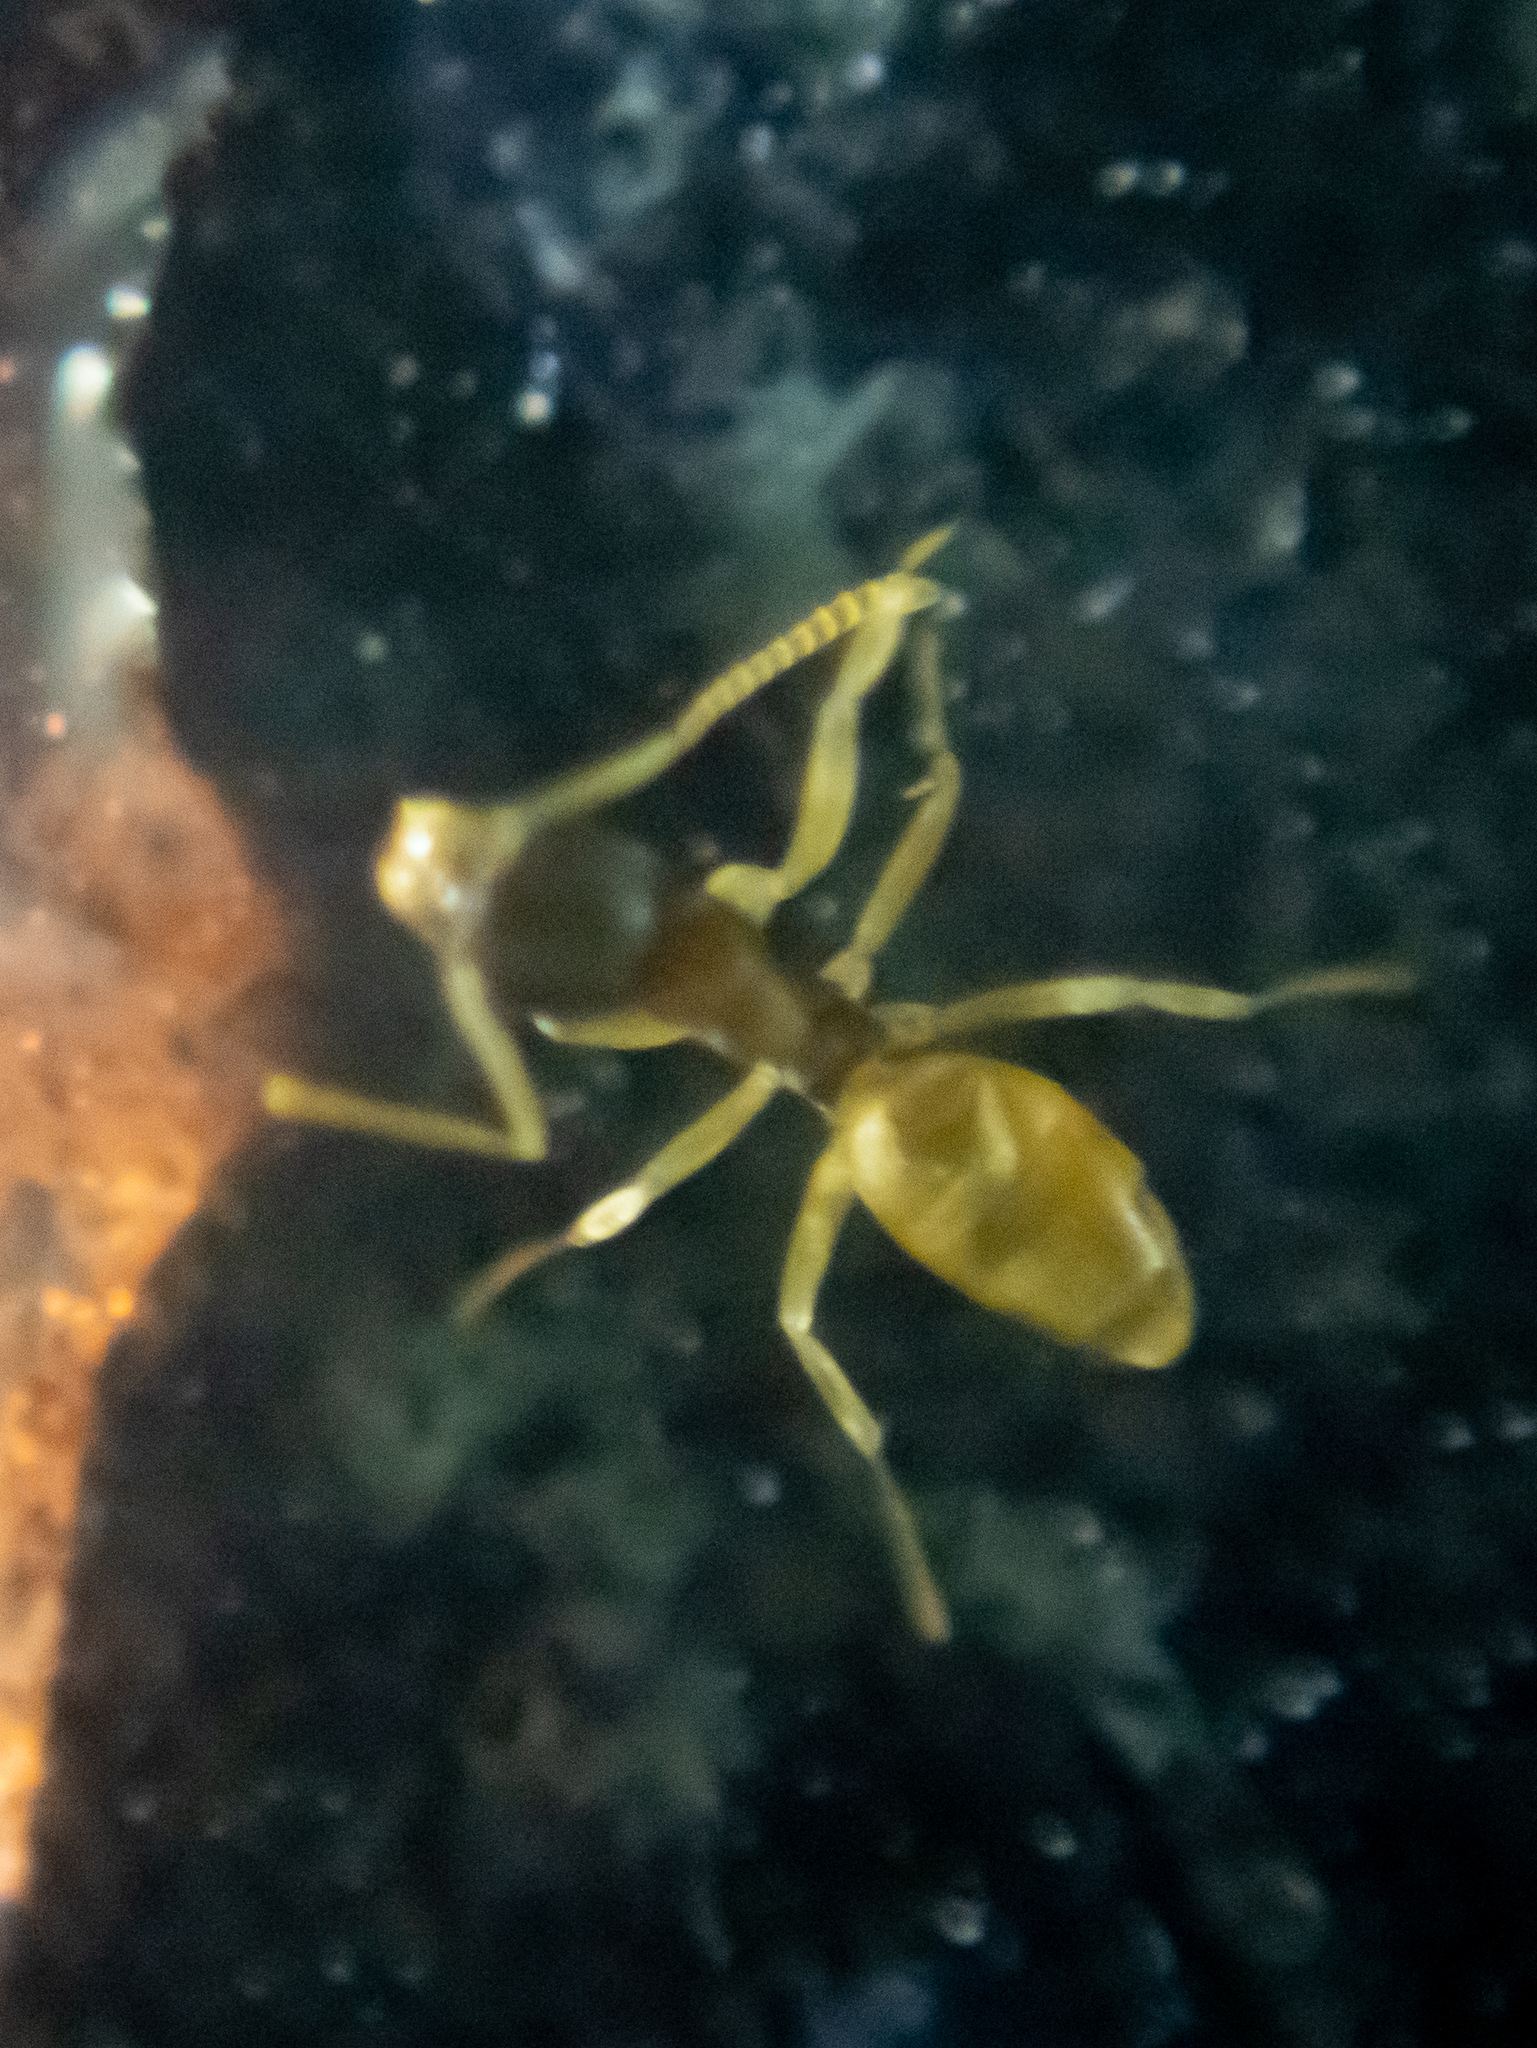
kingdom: Animalia
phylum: Arthropoda
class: Insecta
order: Hymenoptera
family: Formicidae
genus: Tapinoma
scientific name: Tapinoma melanocephalum
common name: Ghost ant
